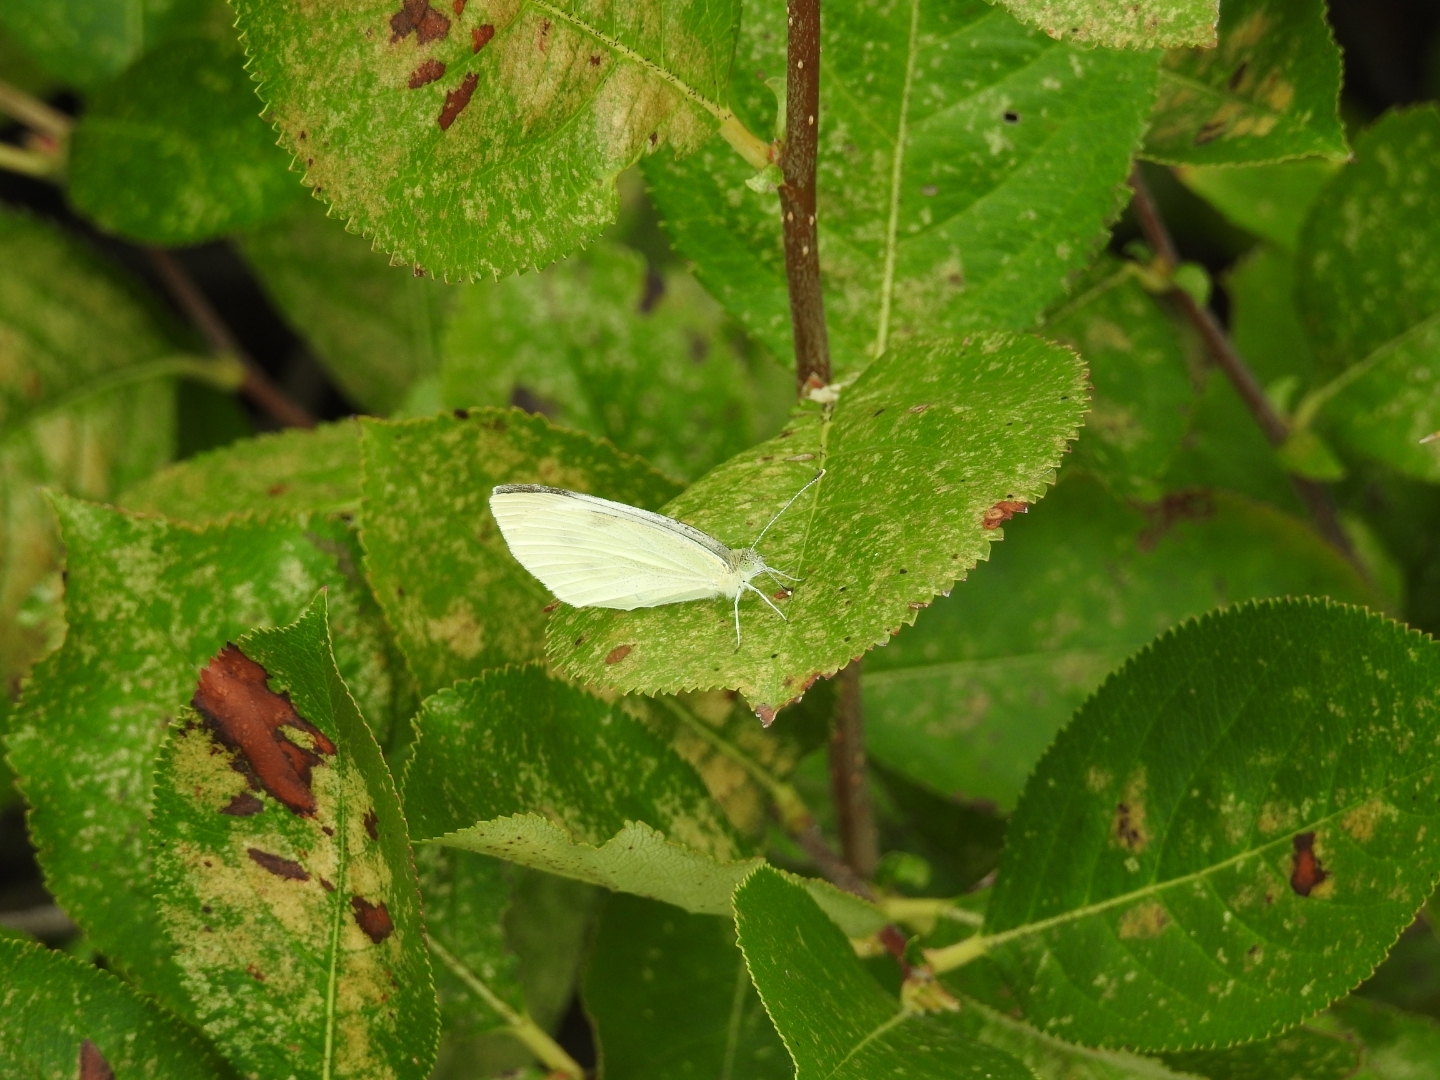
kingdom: Animalia
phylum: Arthropoda
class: Insecta
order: Lepidoptera
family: Pieridae
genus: Pieris
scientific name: Pieris rapae
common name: Small white
